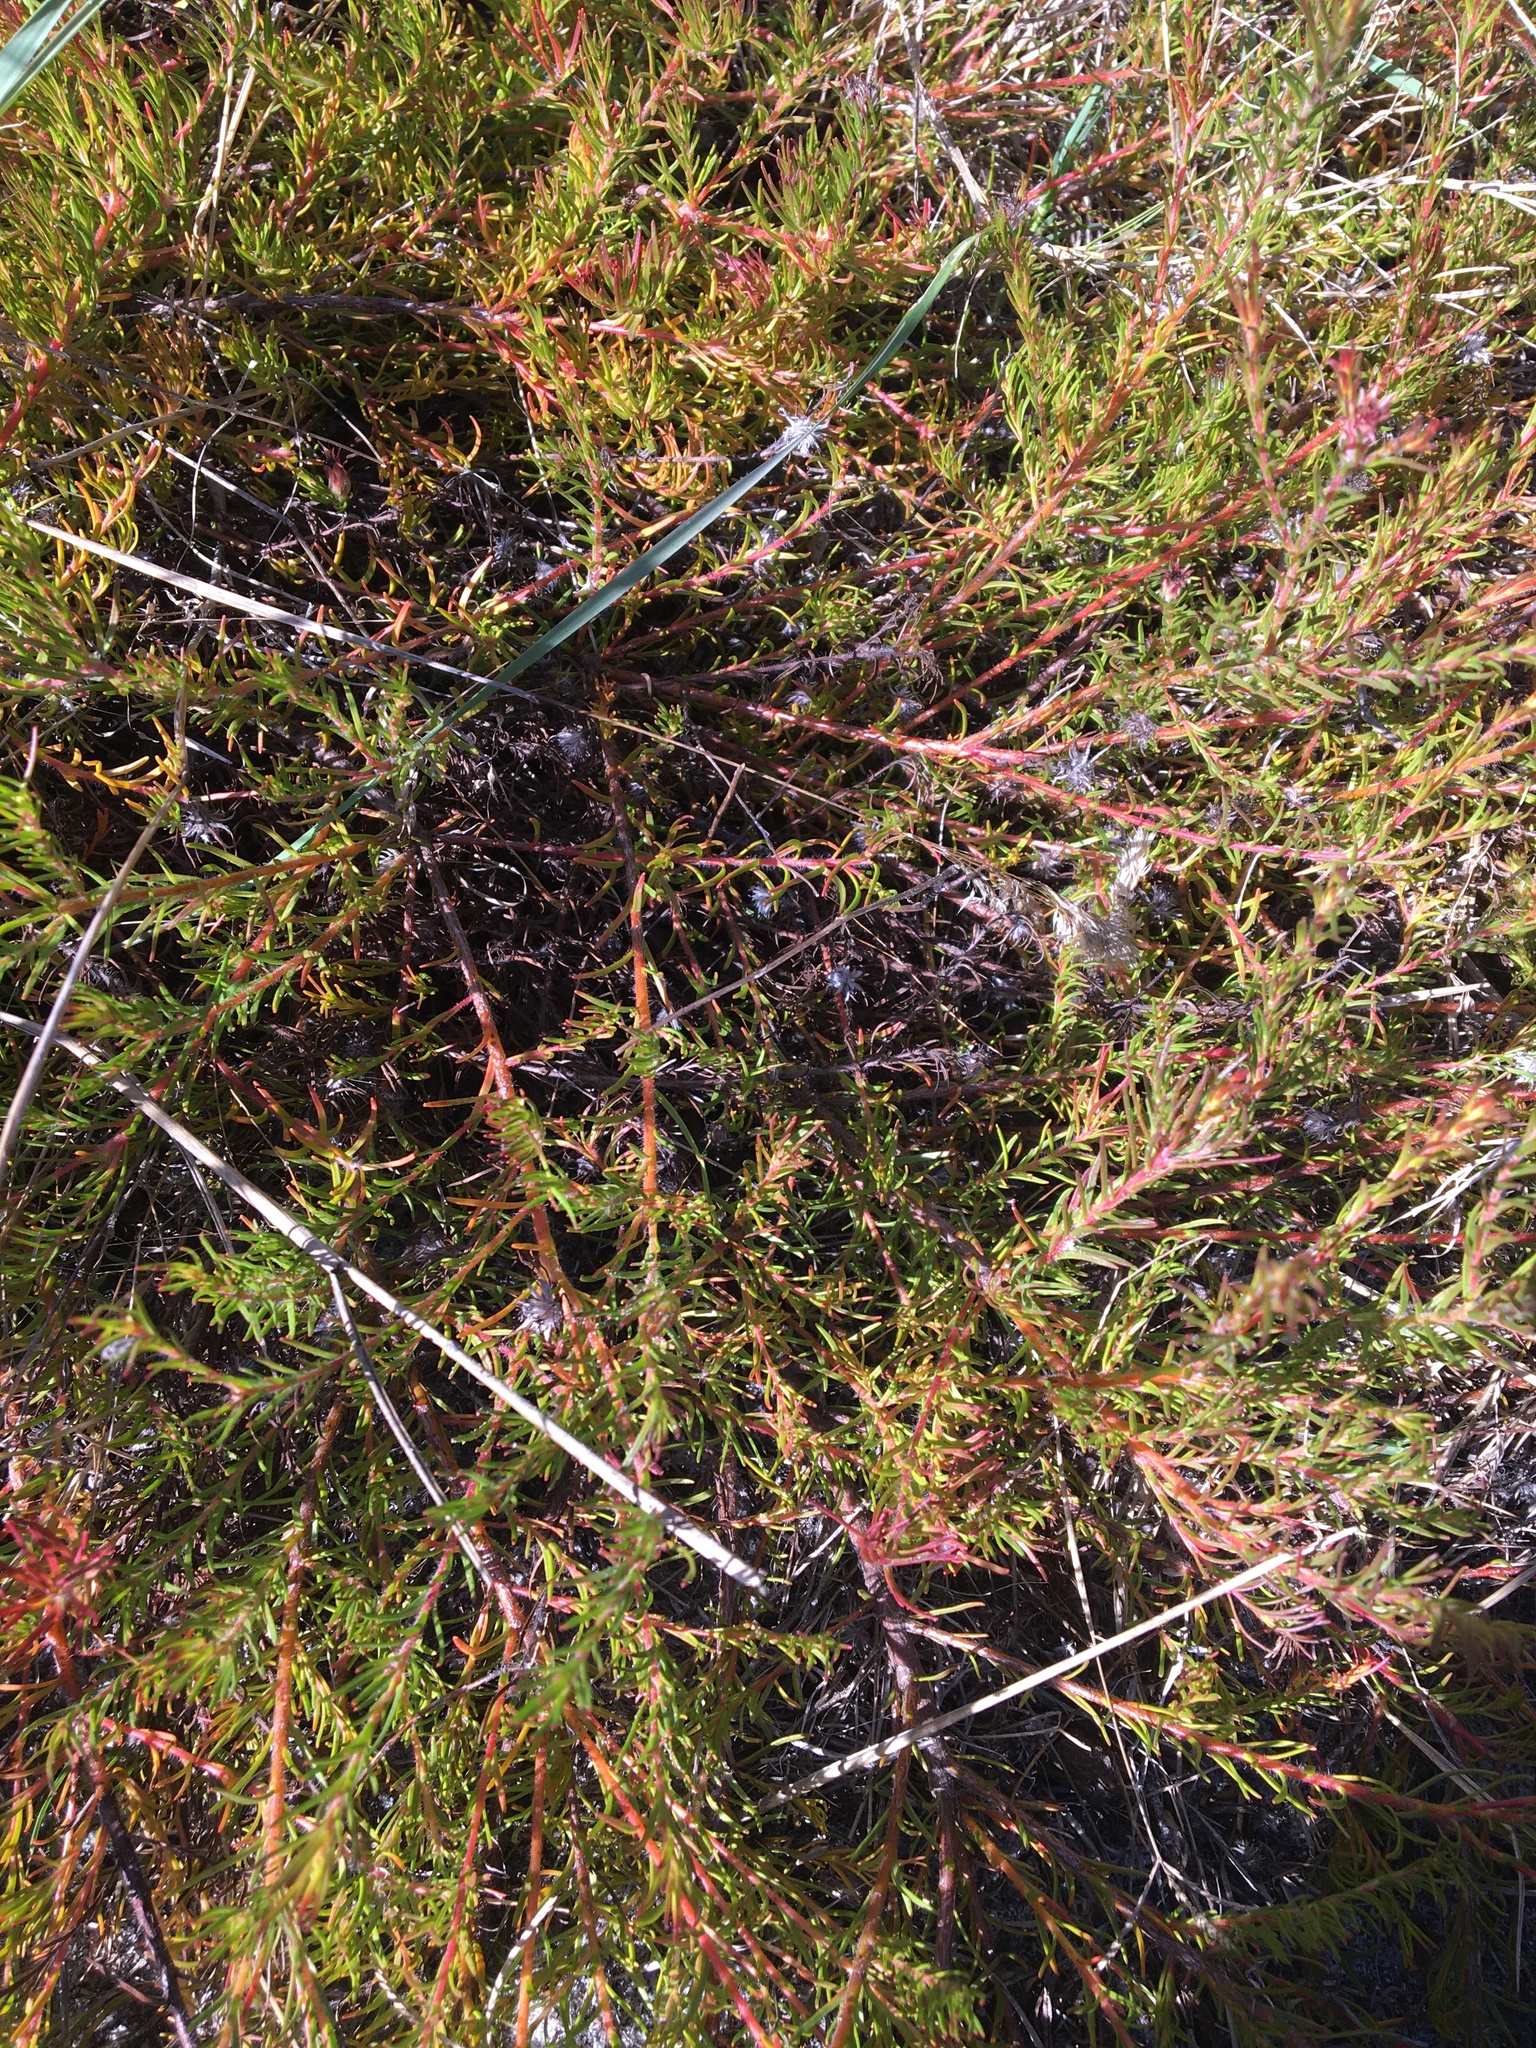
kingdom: Plantae
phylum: Tracheophyta
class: Magnoliopsida
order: Proteales
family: Proteaceae
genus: Diastella
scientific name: Diastella proteoides
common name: Flats silkypuff
